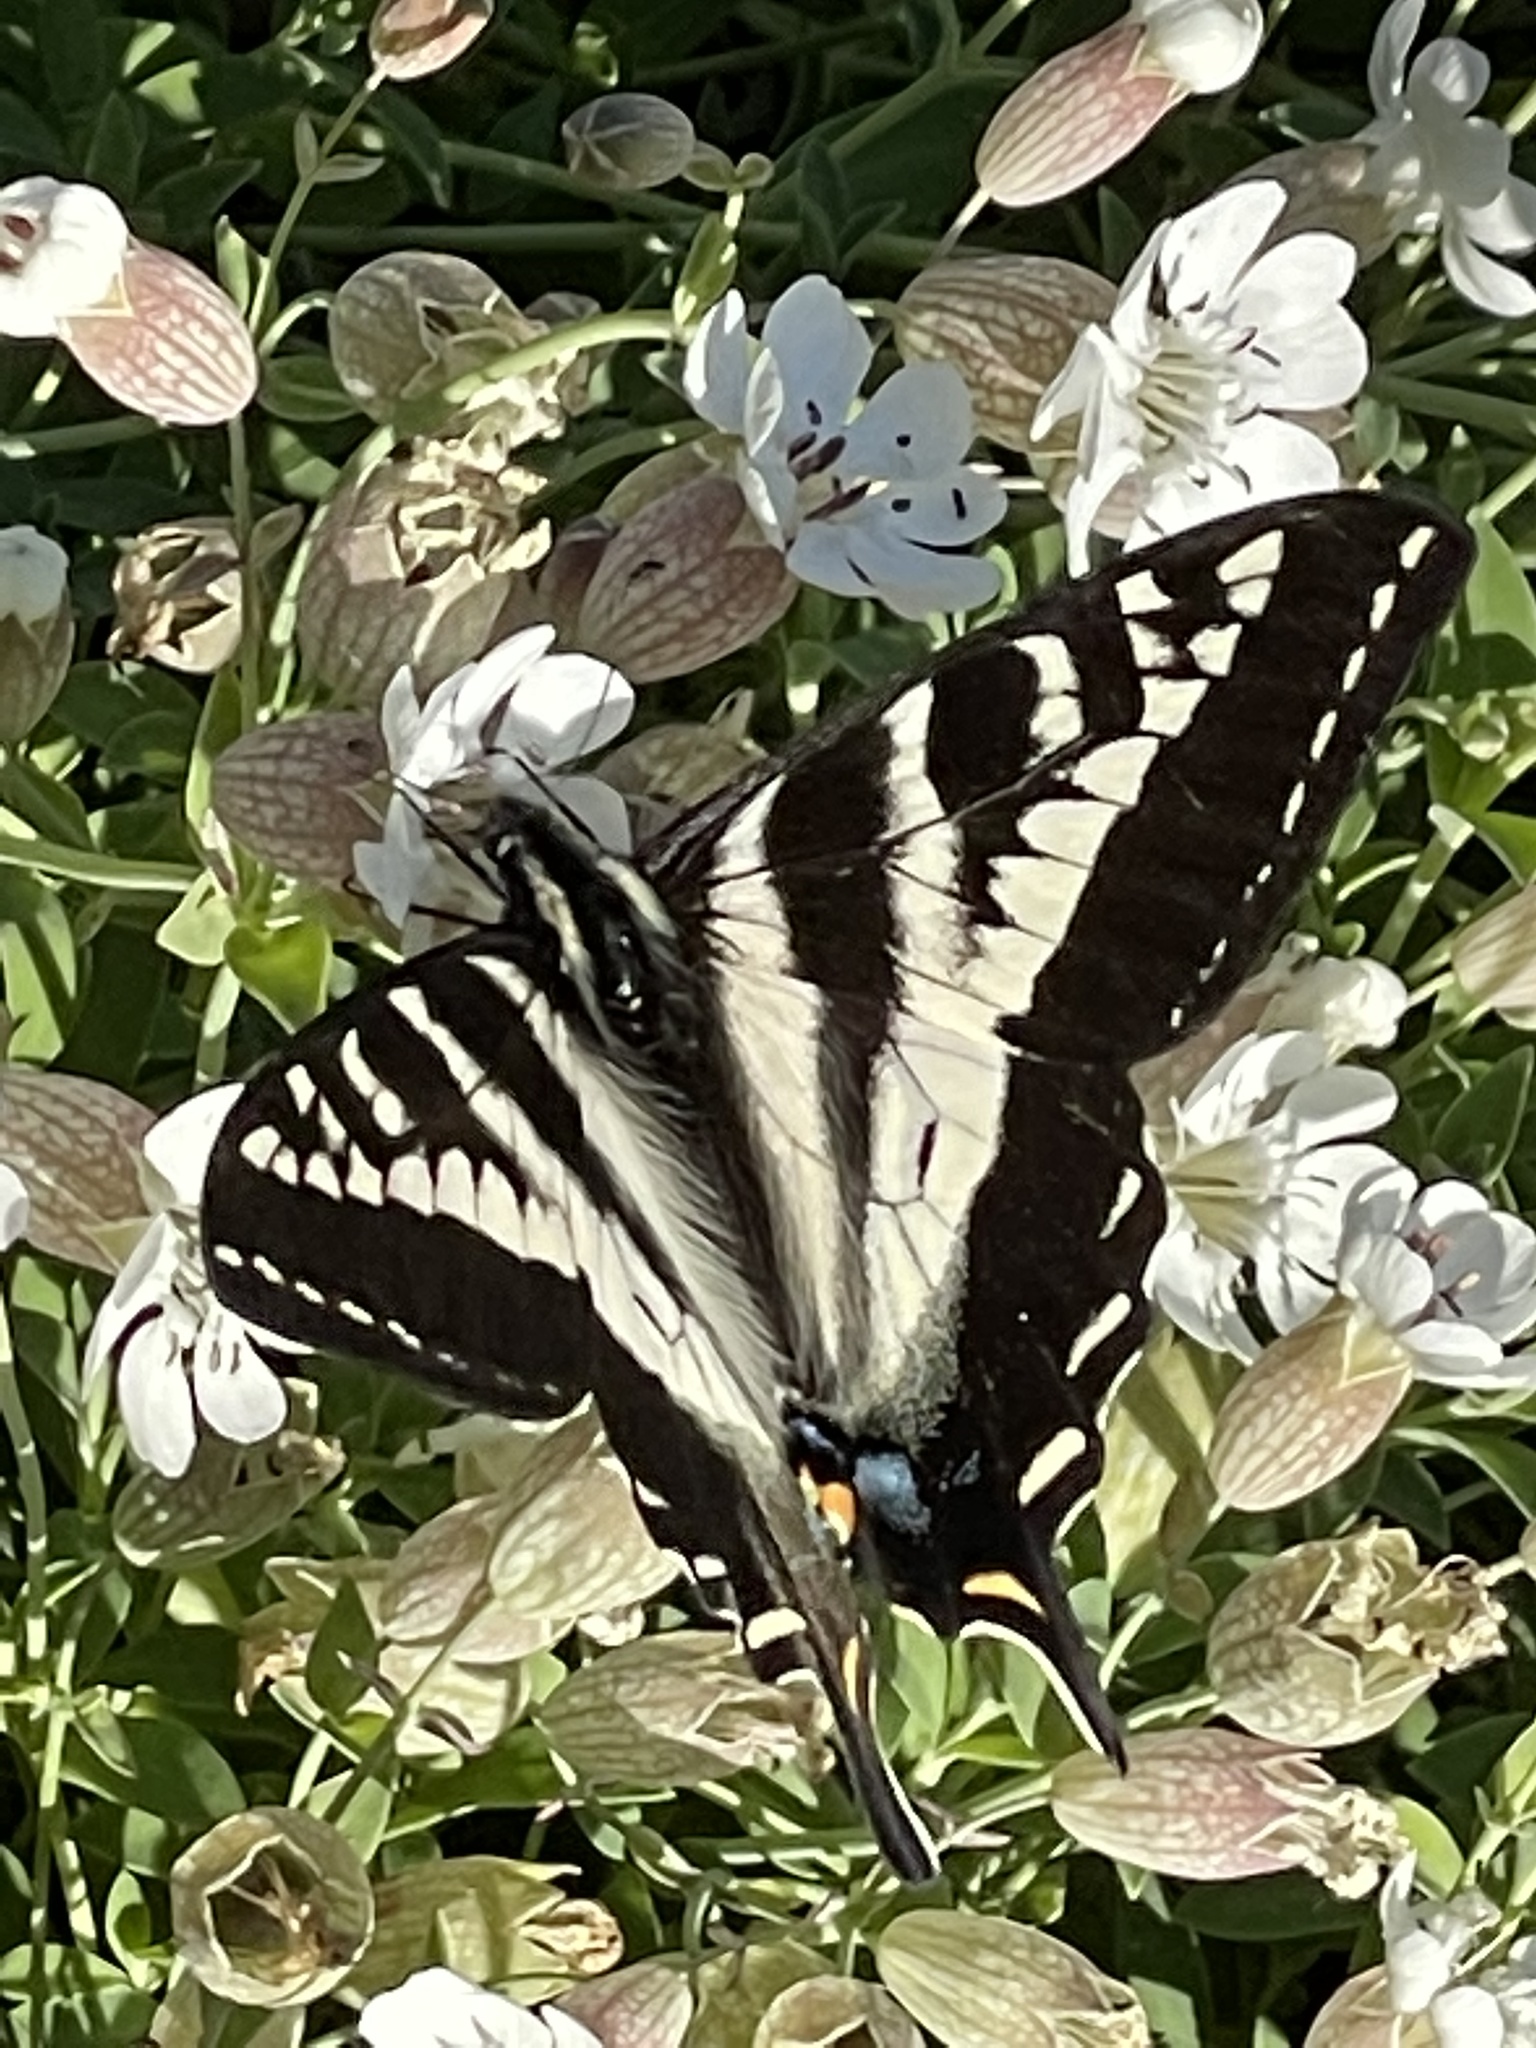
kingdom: Animalia
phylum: Arthropoda
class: Insecta
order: Lepidoptera
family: Papilionidae
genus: Papilio
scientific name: Papilio eurymedon
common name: Pale tiger swallowtail
